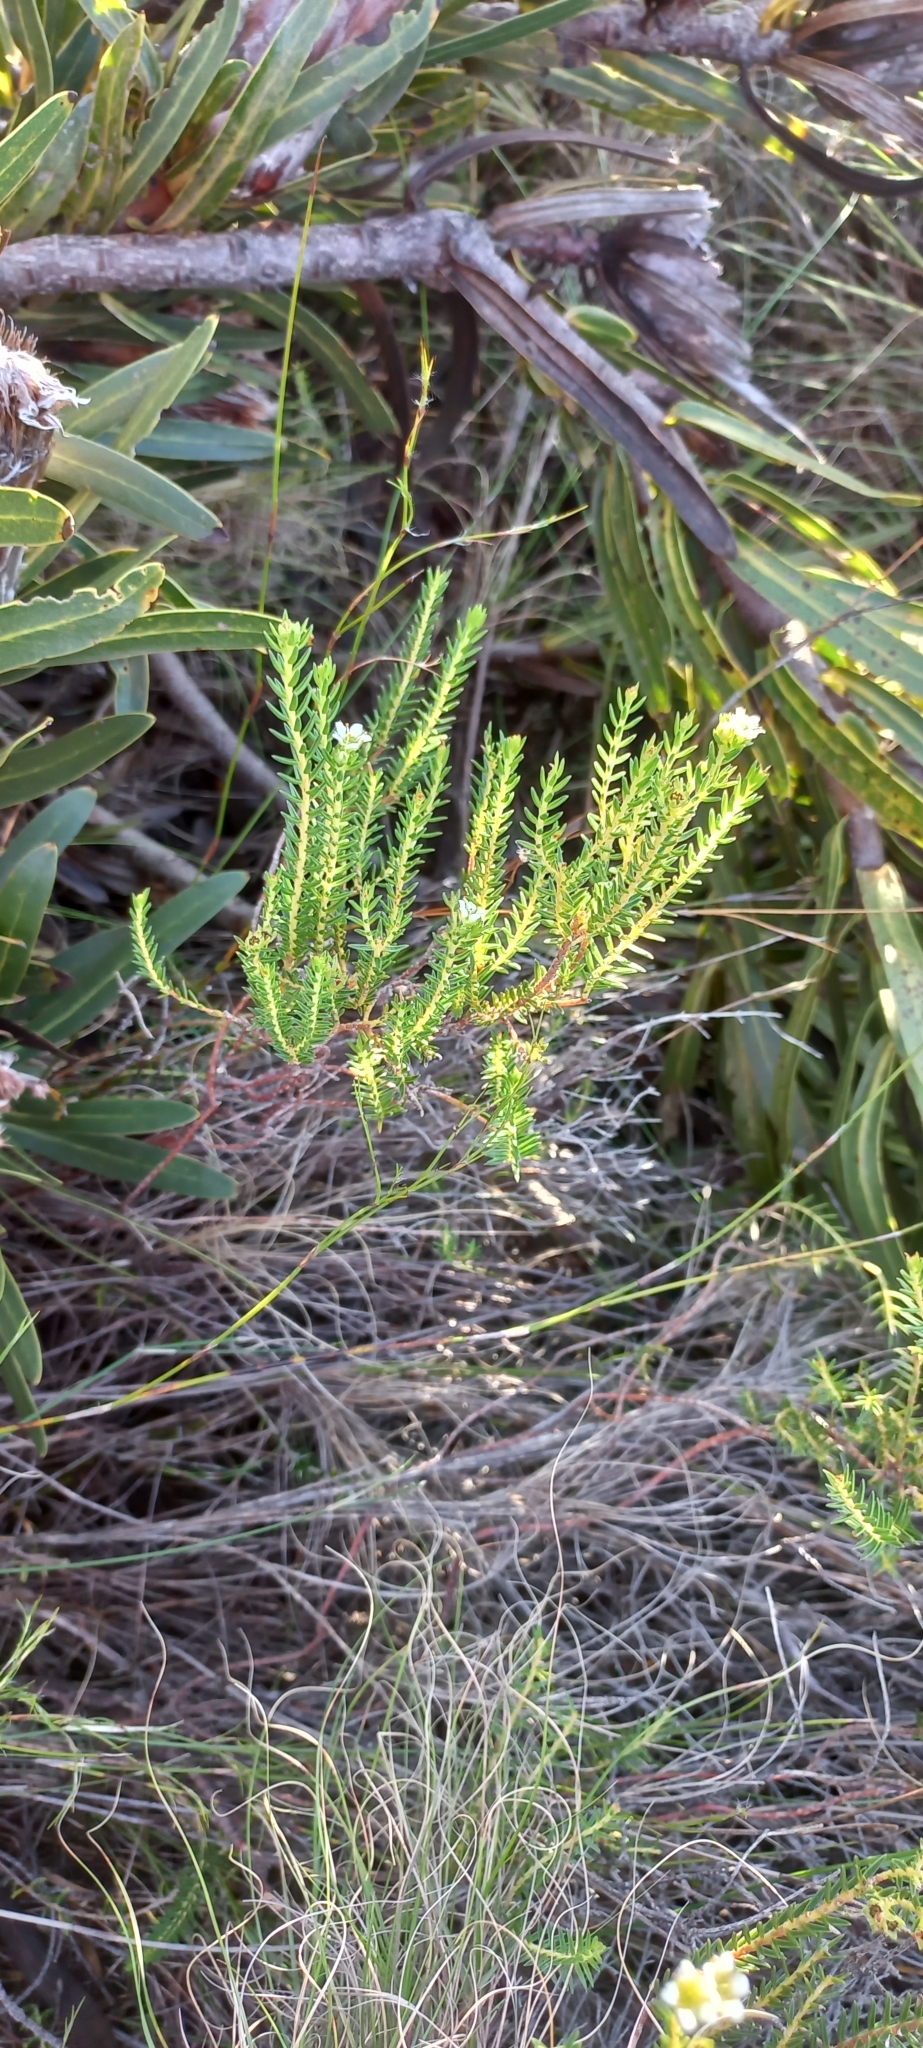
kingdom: Plantae
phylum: Tracheophyta
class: Magnoliopsida
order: Sapindales
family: Rutaceae
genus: Diosma
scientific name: Diosma oppositifolia
